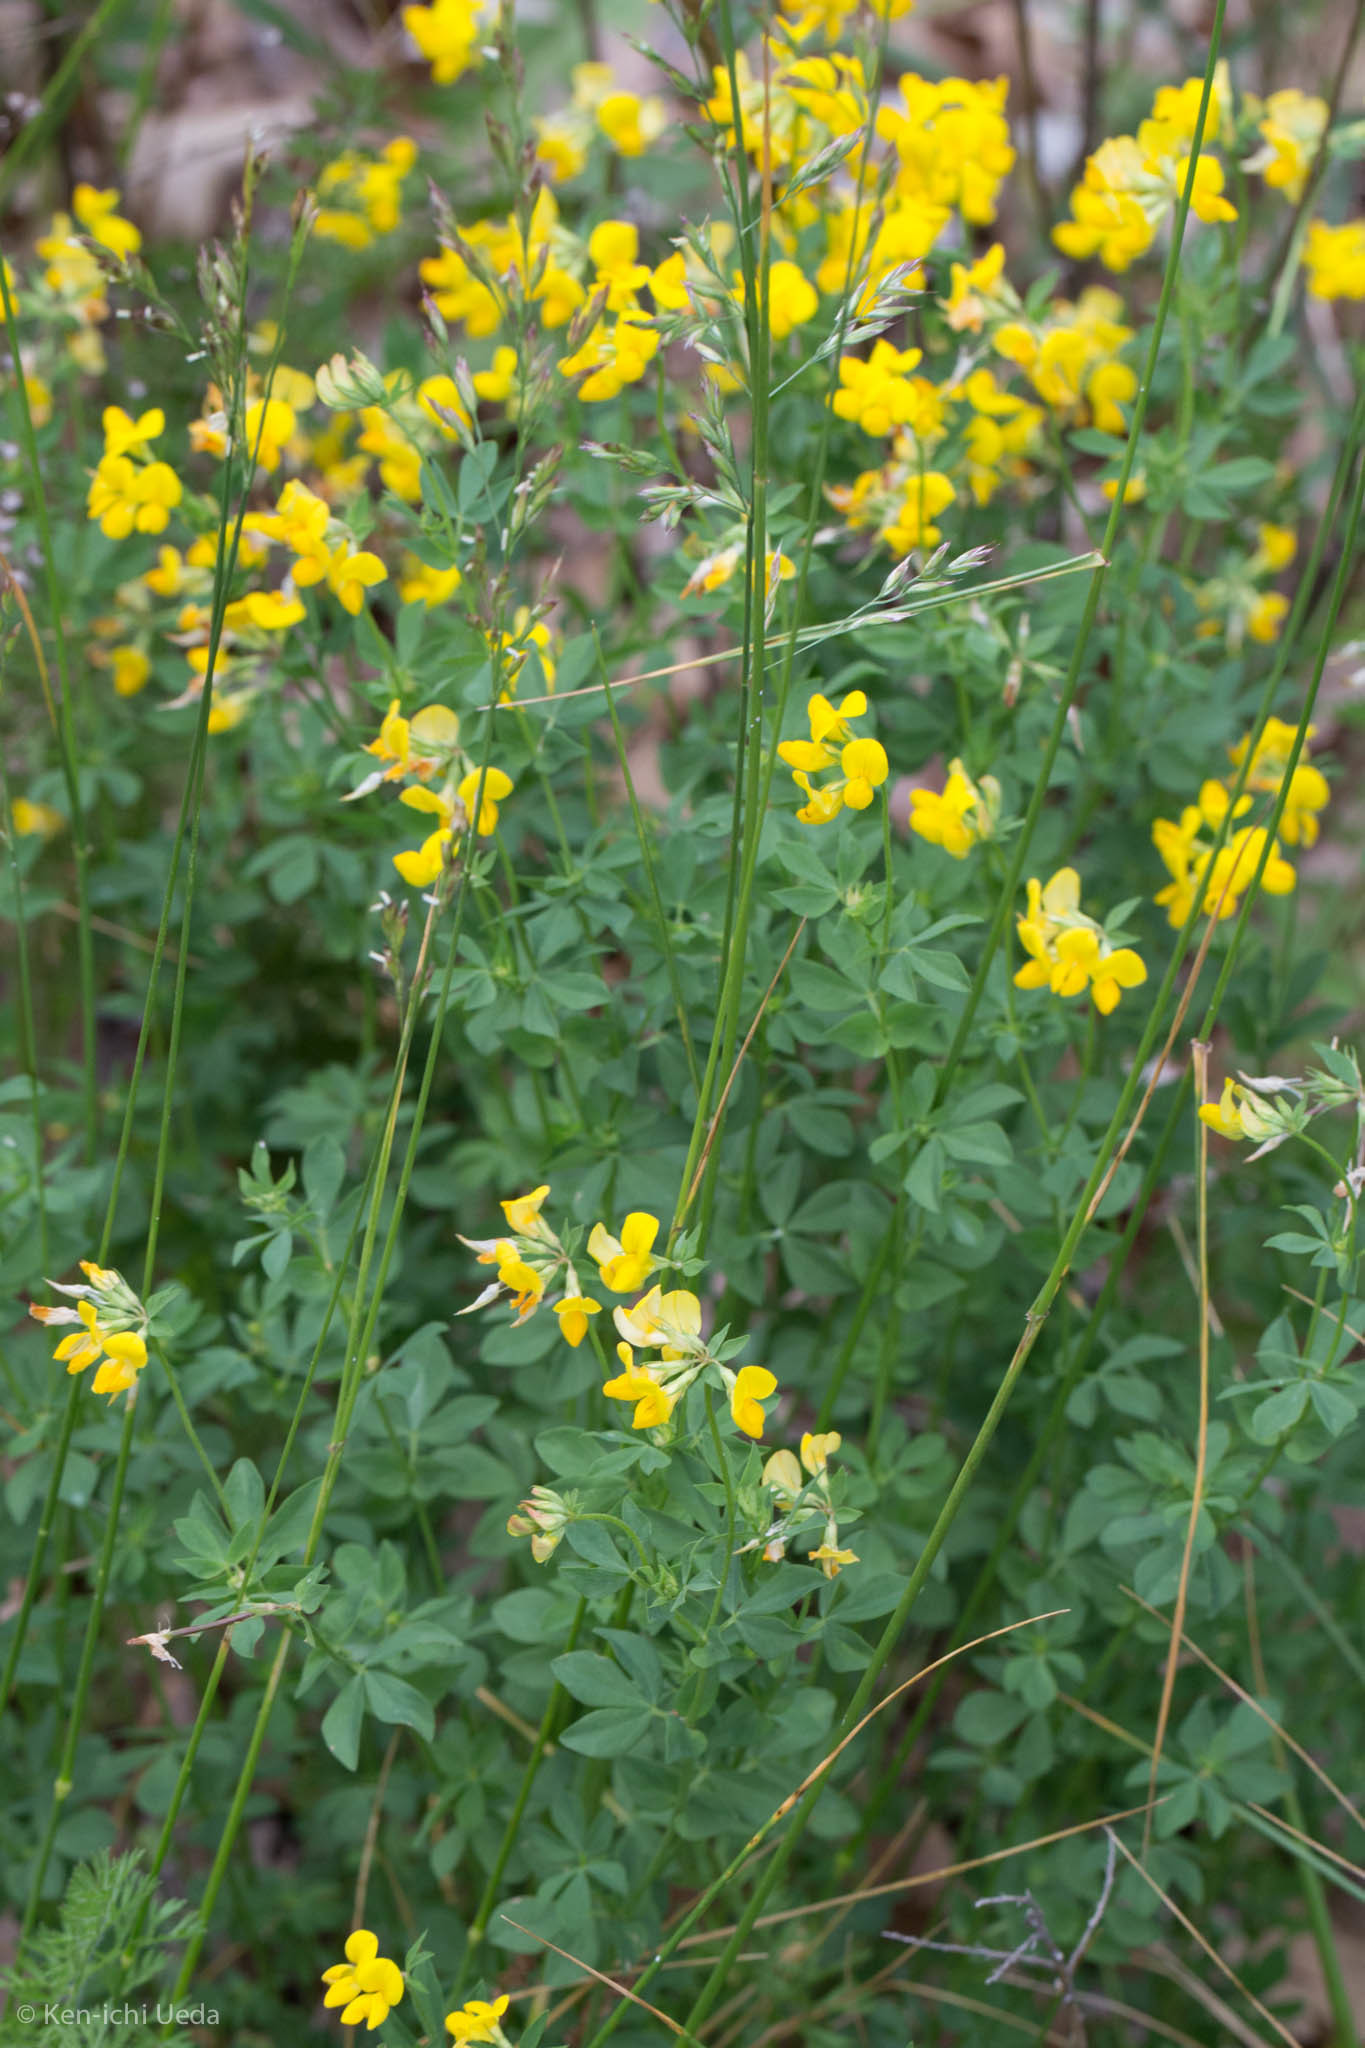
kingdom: Plantae
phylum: Tracheophyta
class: Magnoliopsida
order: Fabales
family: Fabaceae
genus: Lotus
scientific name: Lotus corniculatus
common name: Common bird's-foot-trefoil
